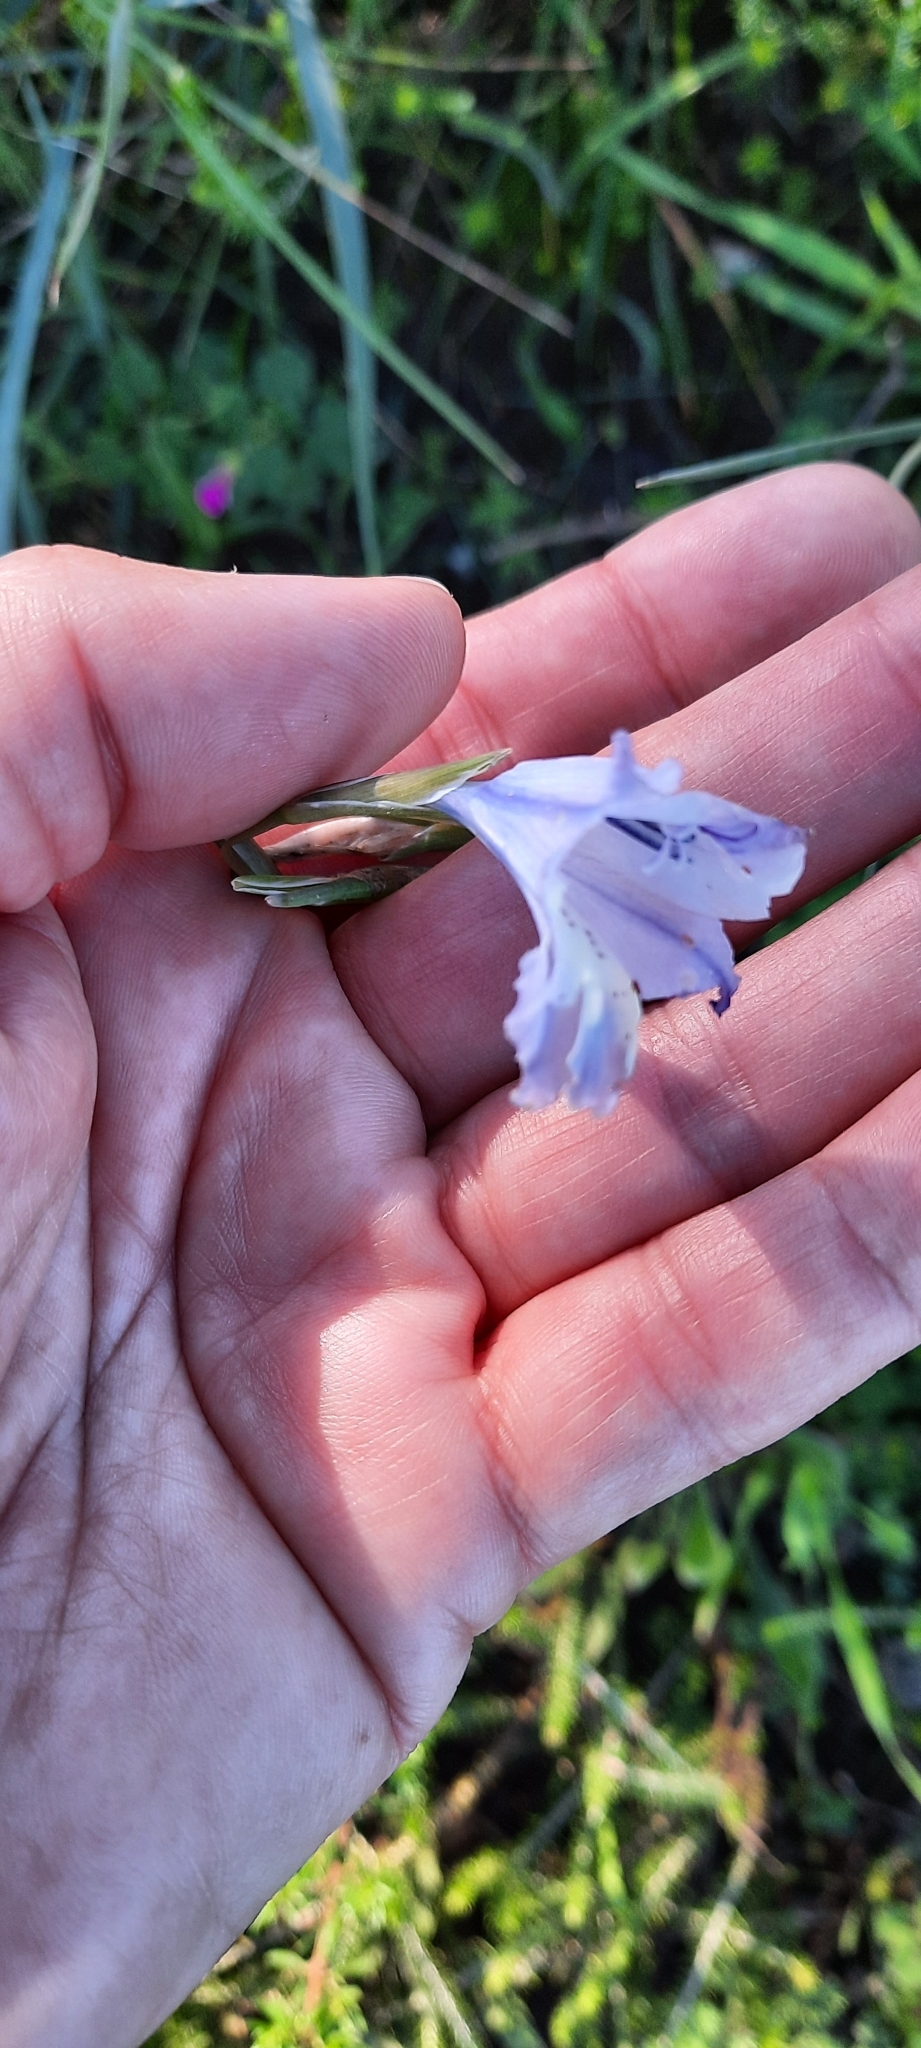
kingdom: Plantae
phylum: Tracheophyta
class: Liliopsida
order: Asparagales
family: Iridaceae
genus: Gladiolus
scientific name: Gladiolus gracilis
